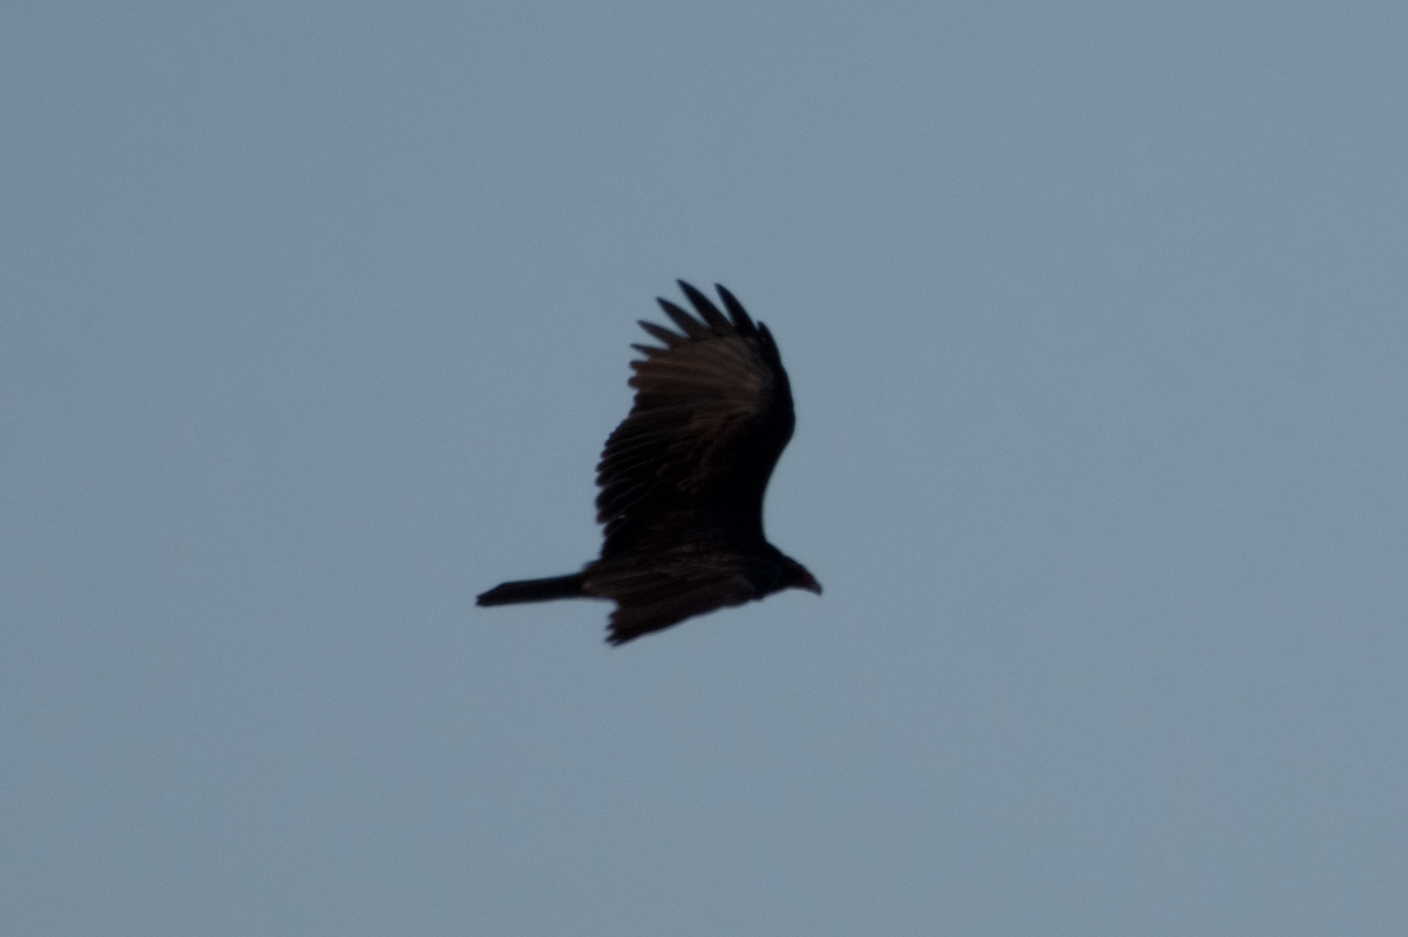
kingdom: Animalia
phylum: Chordata
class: Aves
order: Accipitriformes
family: Cathartidae
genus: Cathartes
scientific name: Cathartes aura
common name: Turkey vulture
